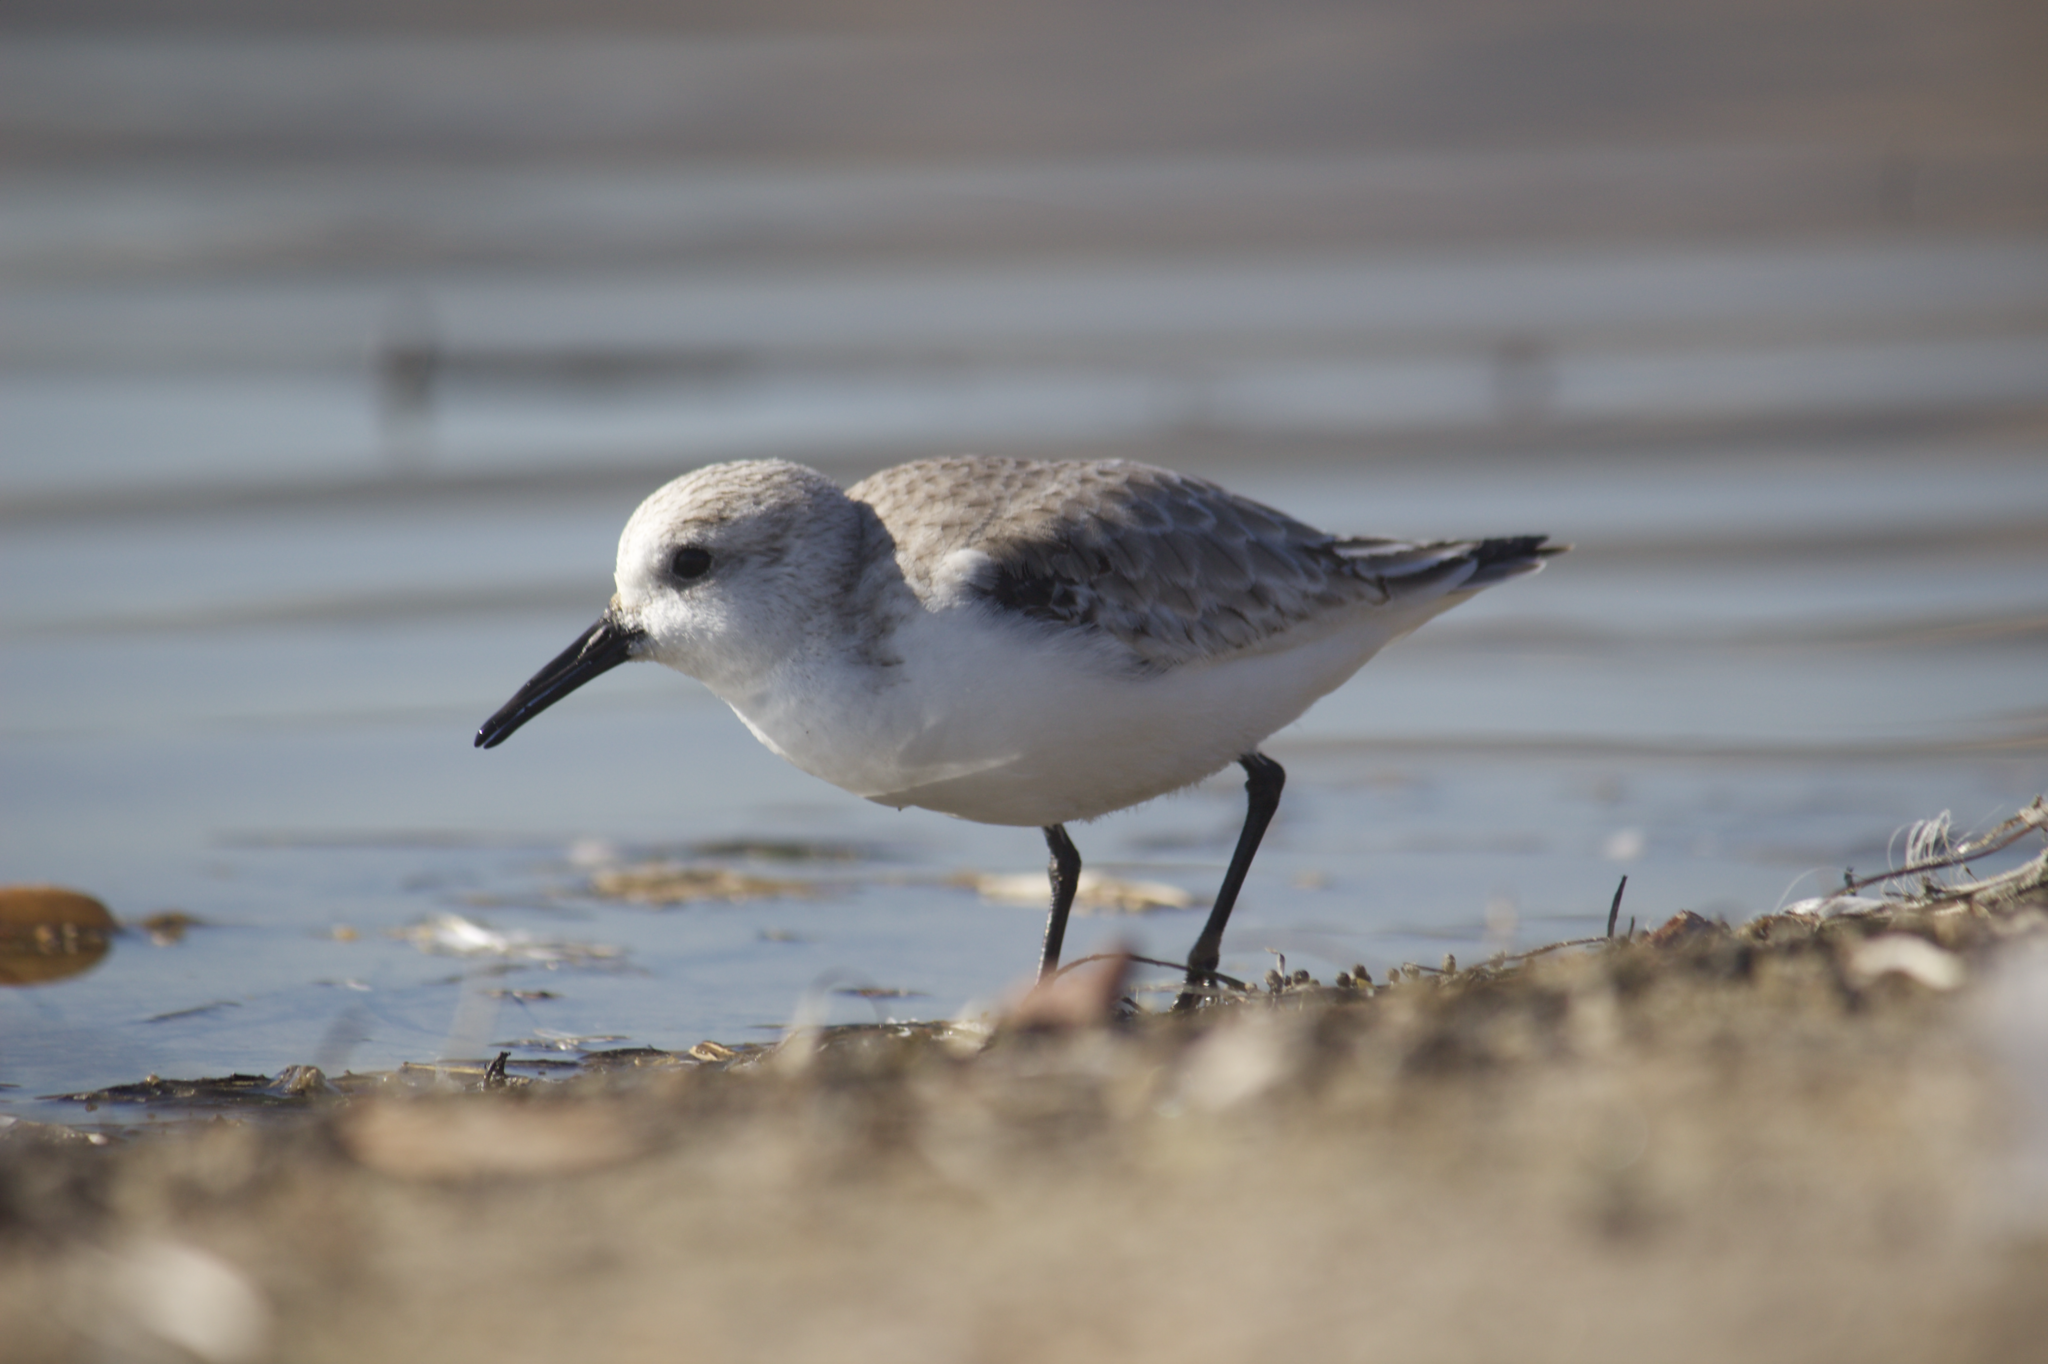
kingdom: Animalia
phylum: Chordata
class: Aves
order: Charadriiformes
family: Scolopacidae
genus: Calidris
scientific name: Calidris alba
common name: Sanderling
